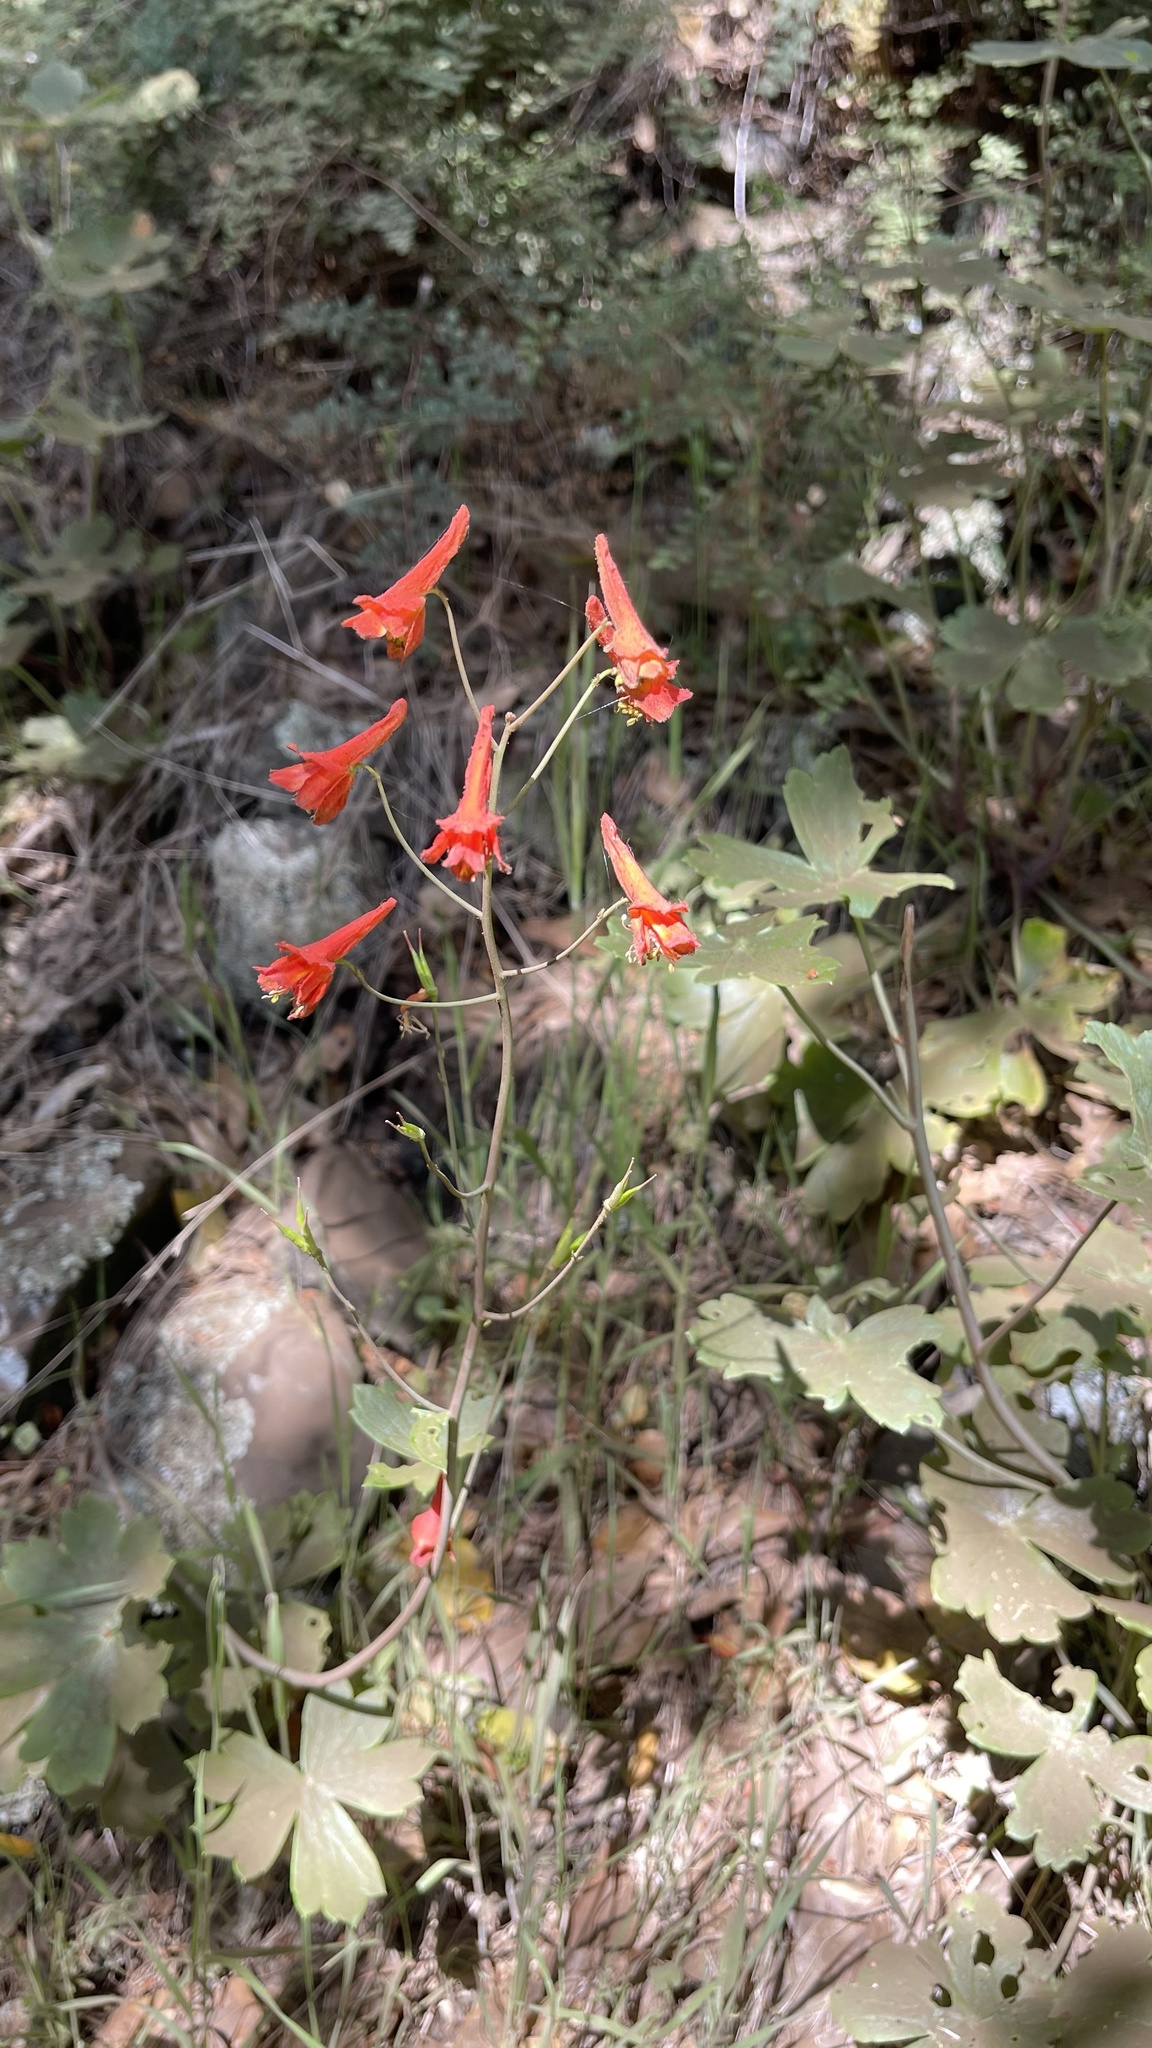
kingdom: Plantae
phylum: Tracheophyta
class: Magnoliopsida
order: Ranunculales
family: Ranunculaceae
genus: Delphinium
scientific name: Delphinium nudicaule
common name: Red larkspur
